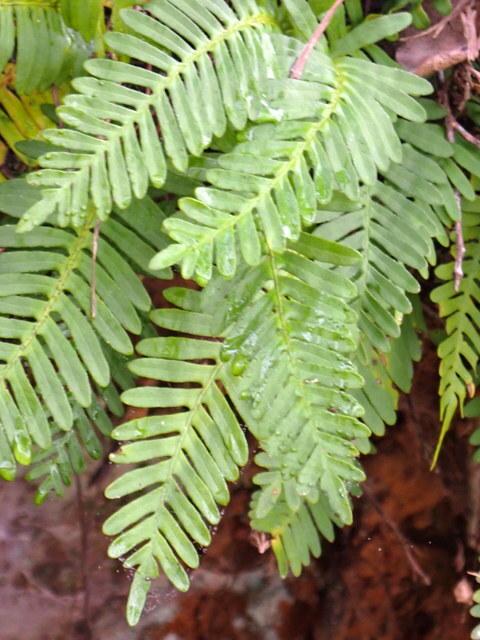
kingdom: Plantae
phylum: Tracheophyta
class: Polypodiopsida
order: Polypodiales
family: Polypodiaceae
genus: Pleopeltis
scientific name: Pleopeltis michauxiana
